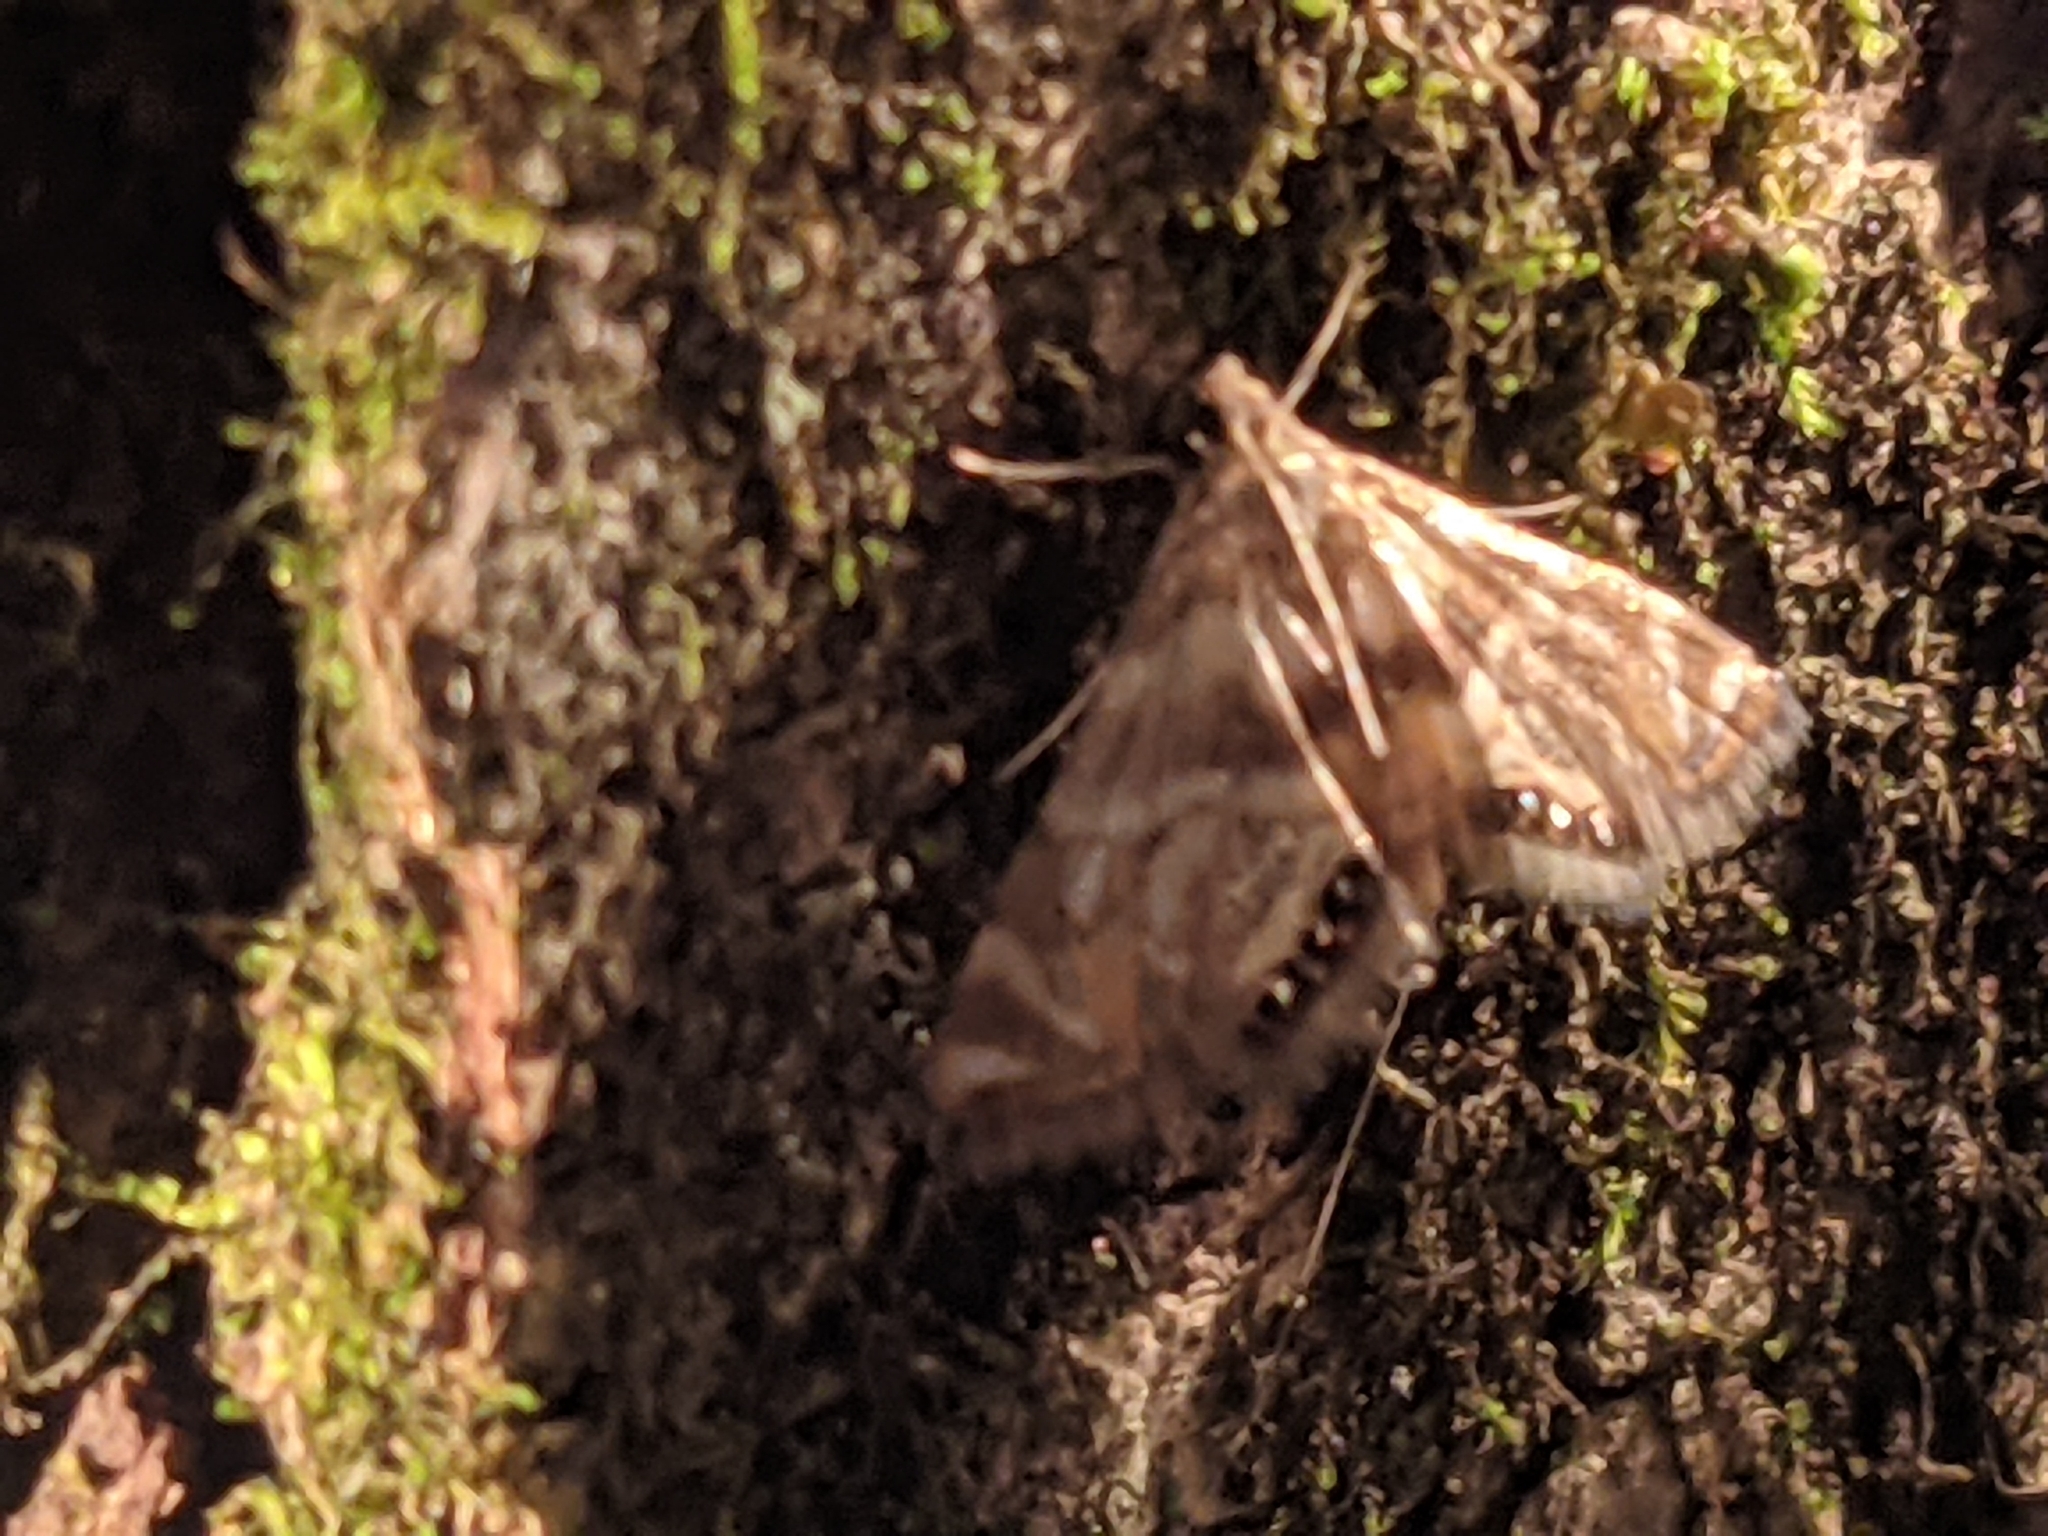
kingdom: Animalia
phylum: Arthropoda
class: Insecta
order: Lepidoptera
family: Crambidae
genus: Petrophila
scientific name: Petrophila canadensis
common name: Canadian petrophila
